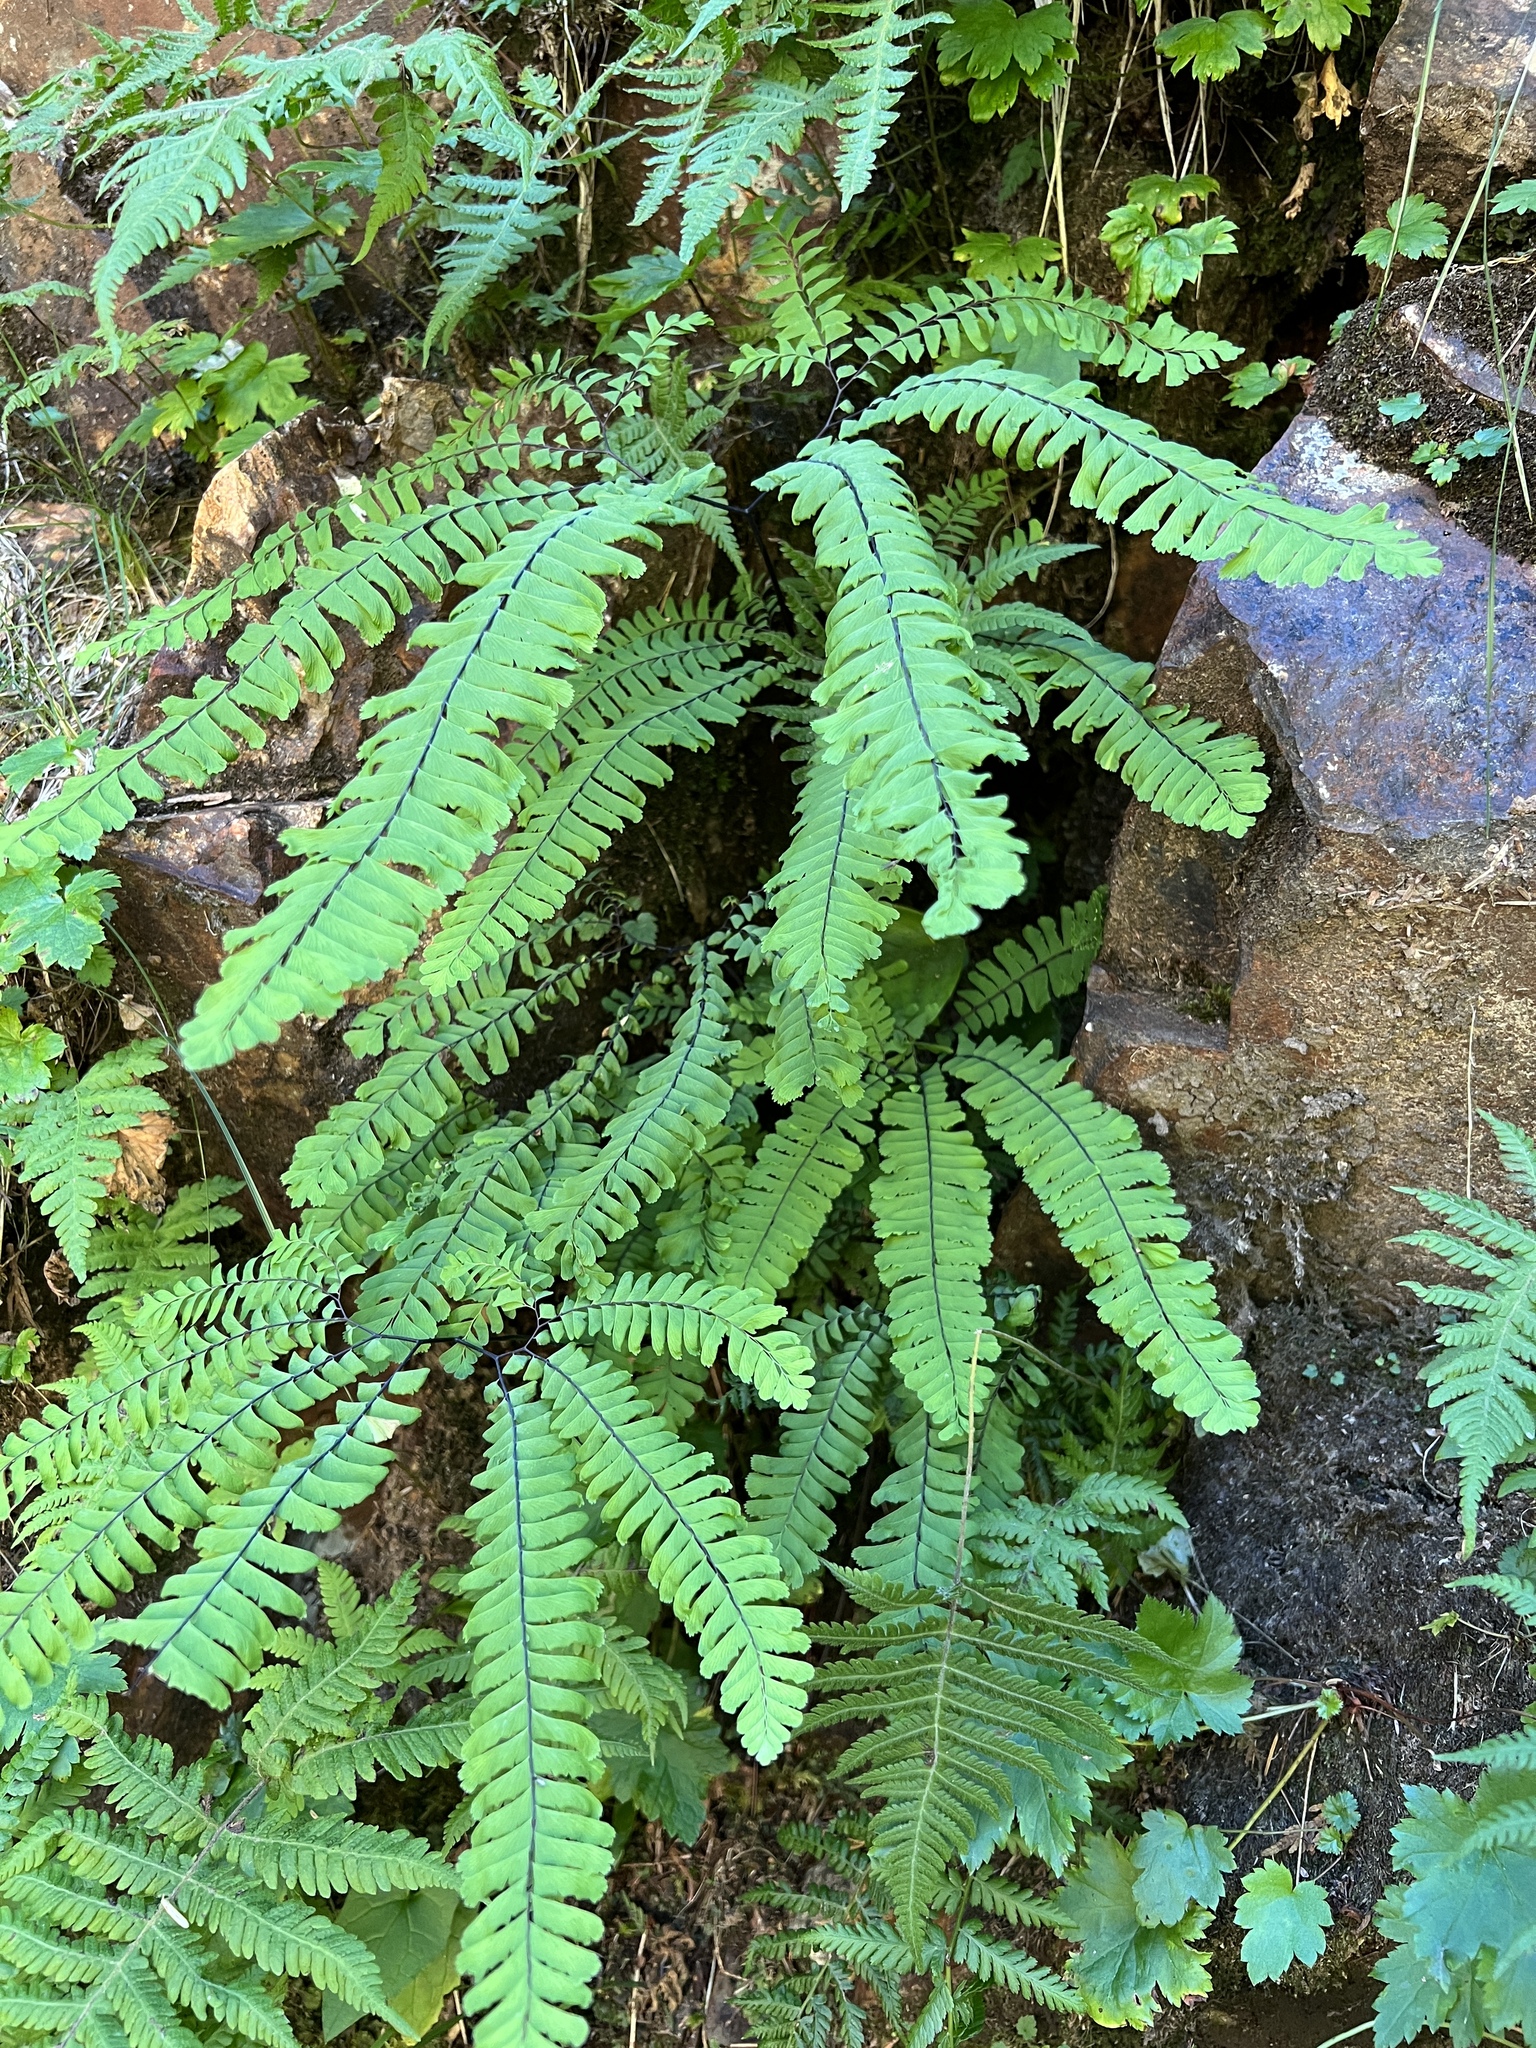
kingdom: Plantae
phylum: Tracheophyta
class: Polypodiopsida
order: Polypodiales
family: Pteridaceae
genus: Adiantum
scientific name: Adiantum aleuticum
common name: Aleutian maidenhair fern
